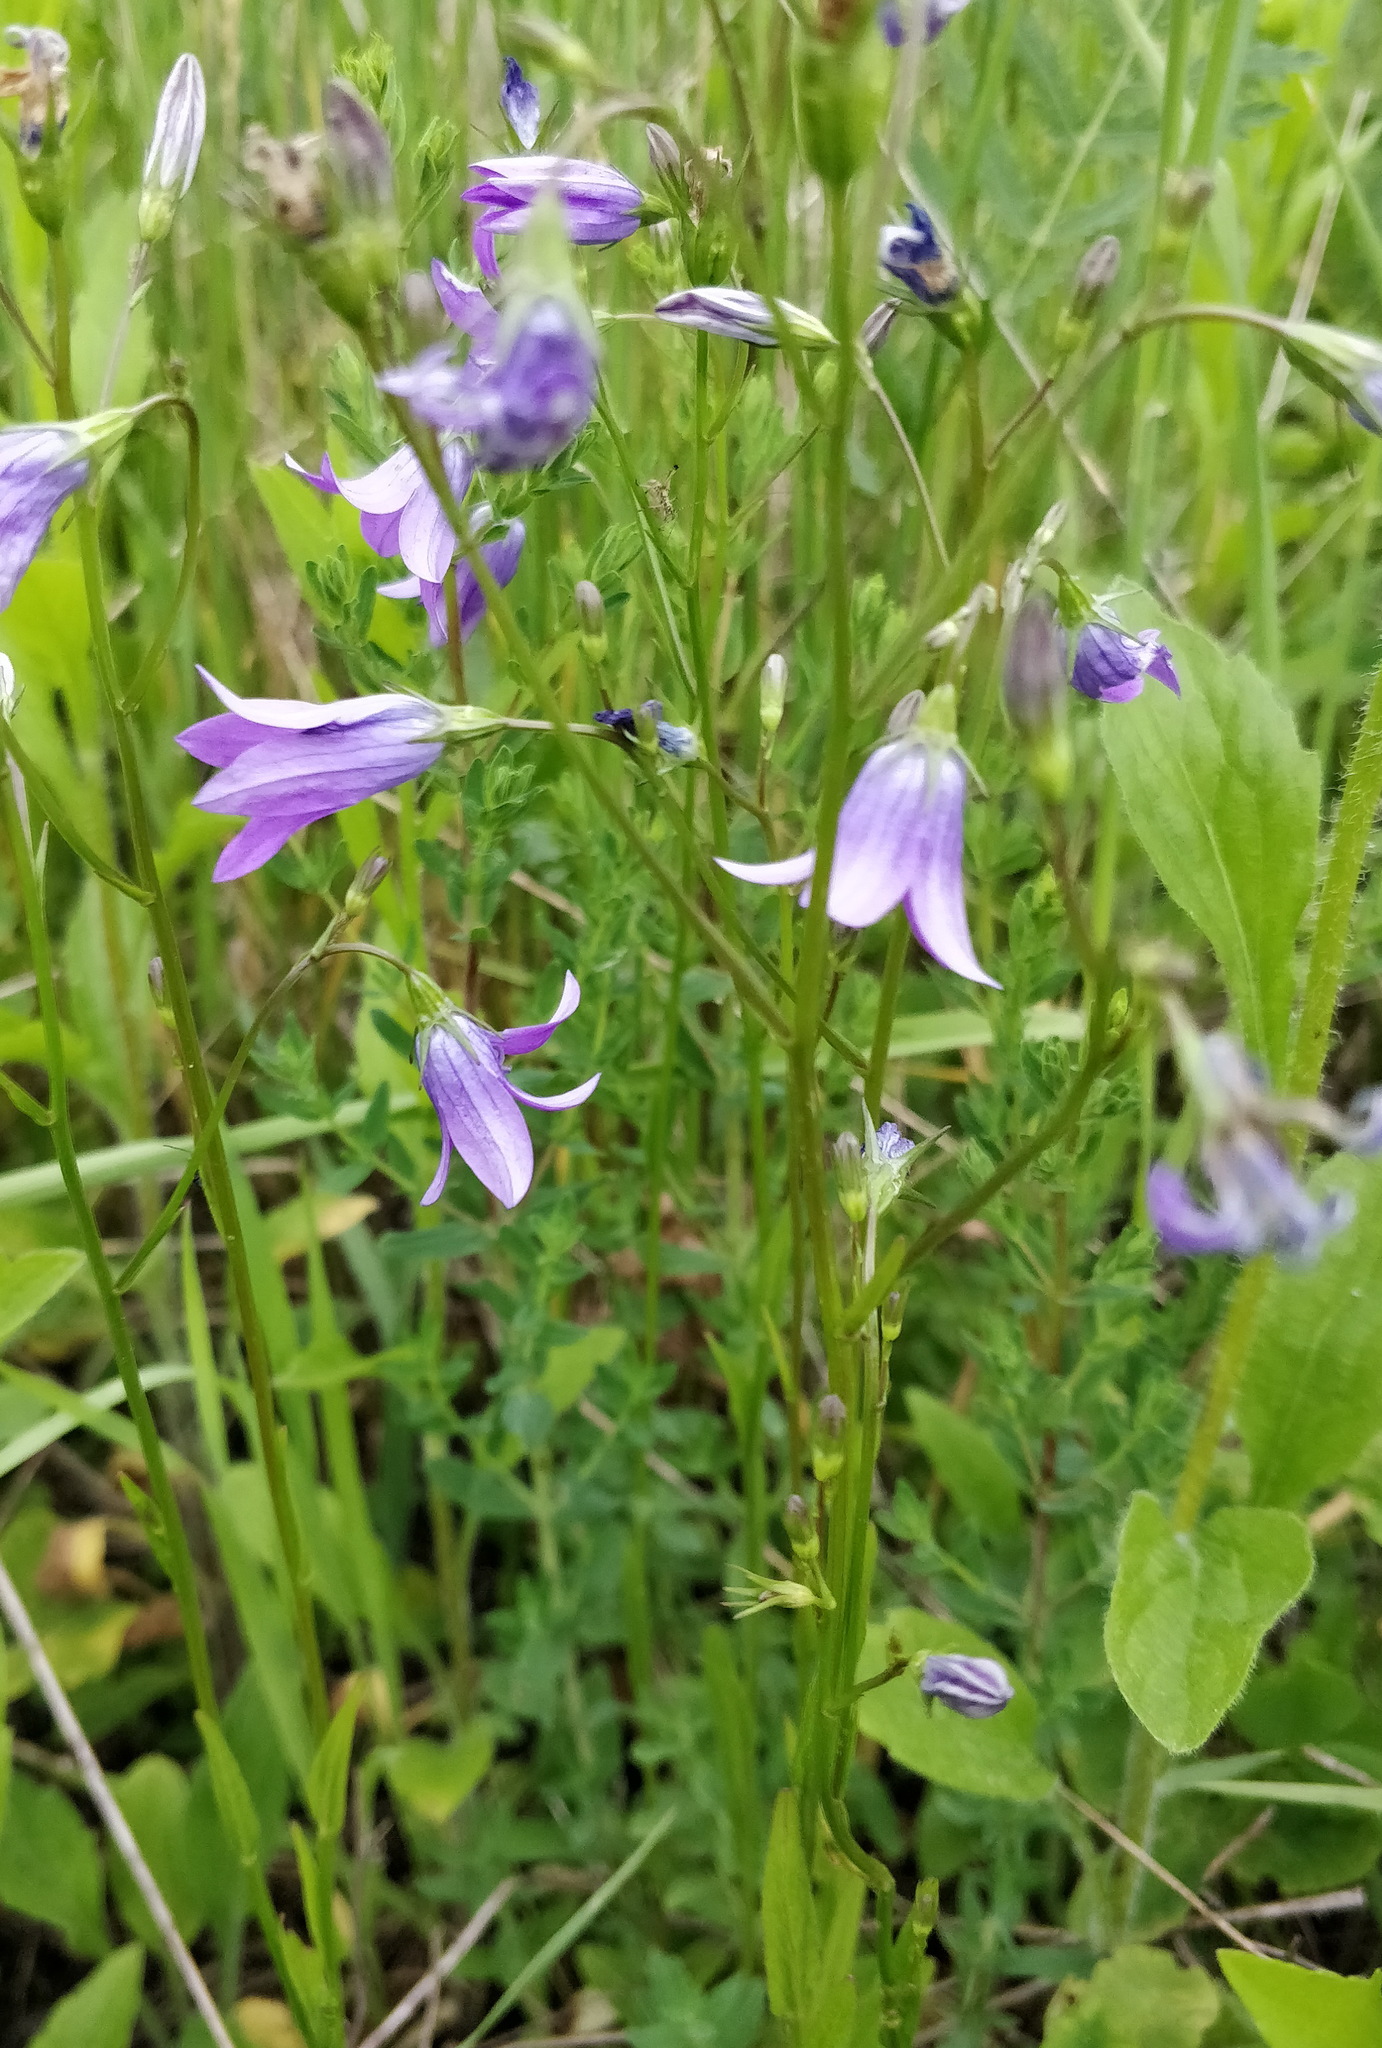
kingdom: Plantae
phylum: Tracheophyta
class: Magnoliopsida
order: Asterales
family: Campanulaceae
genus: Campanula
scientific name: Campanula patula
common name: Spreading bellflower
